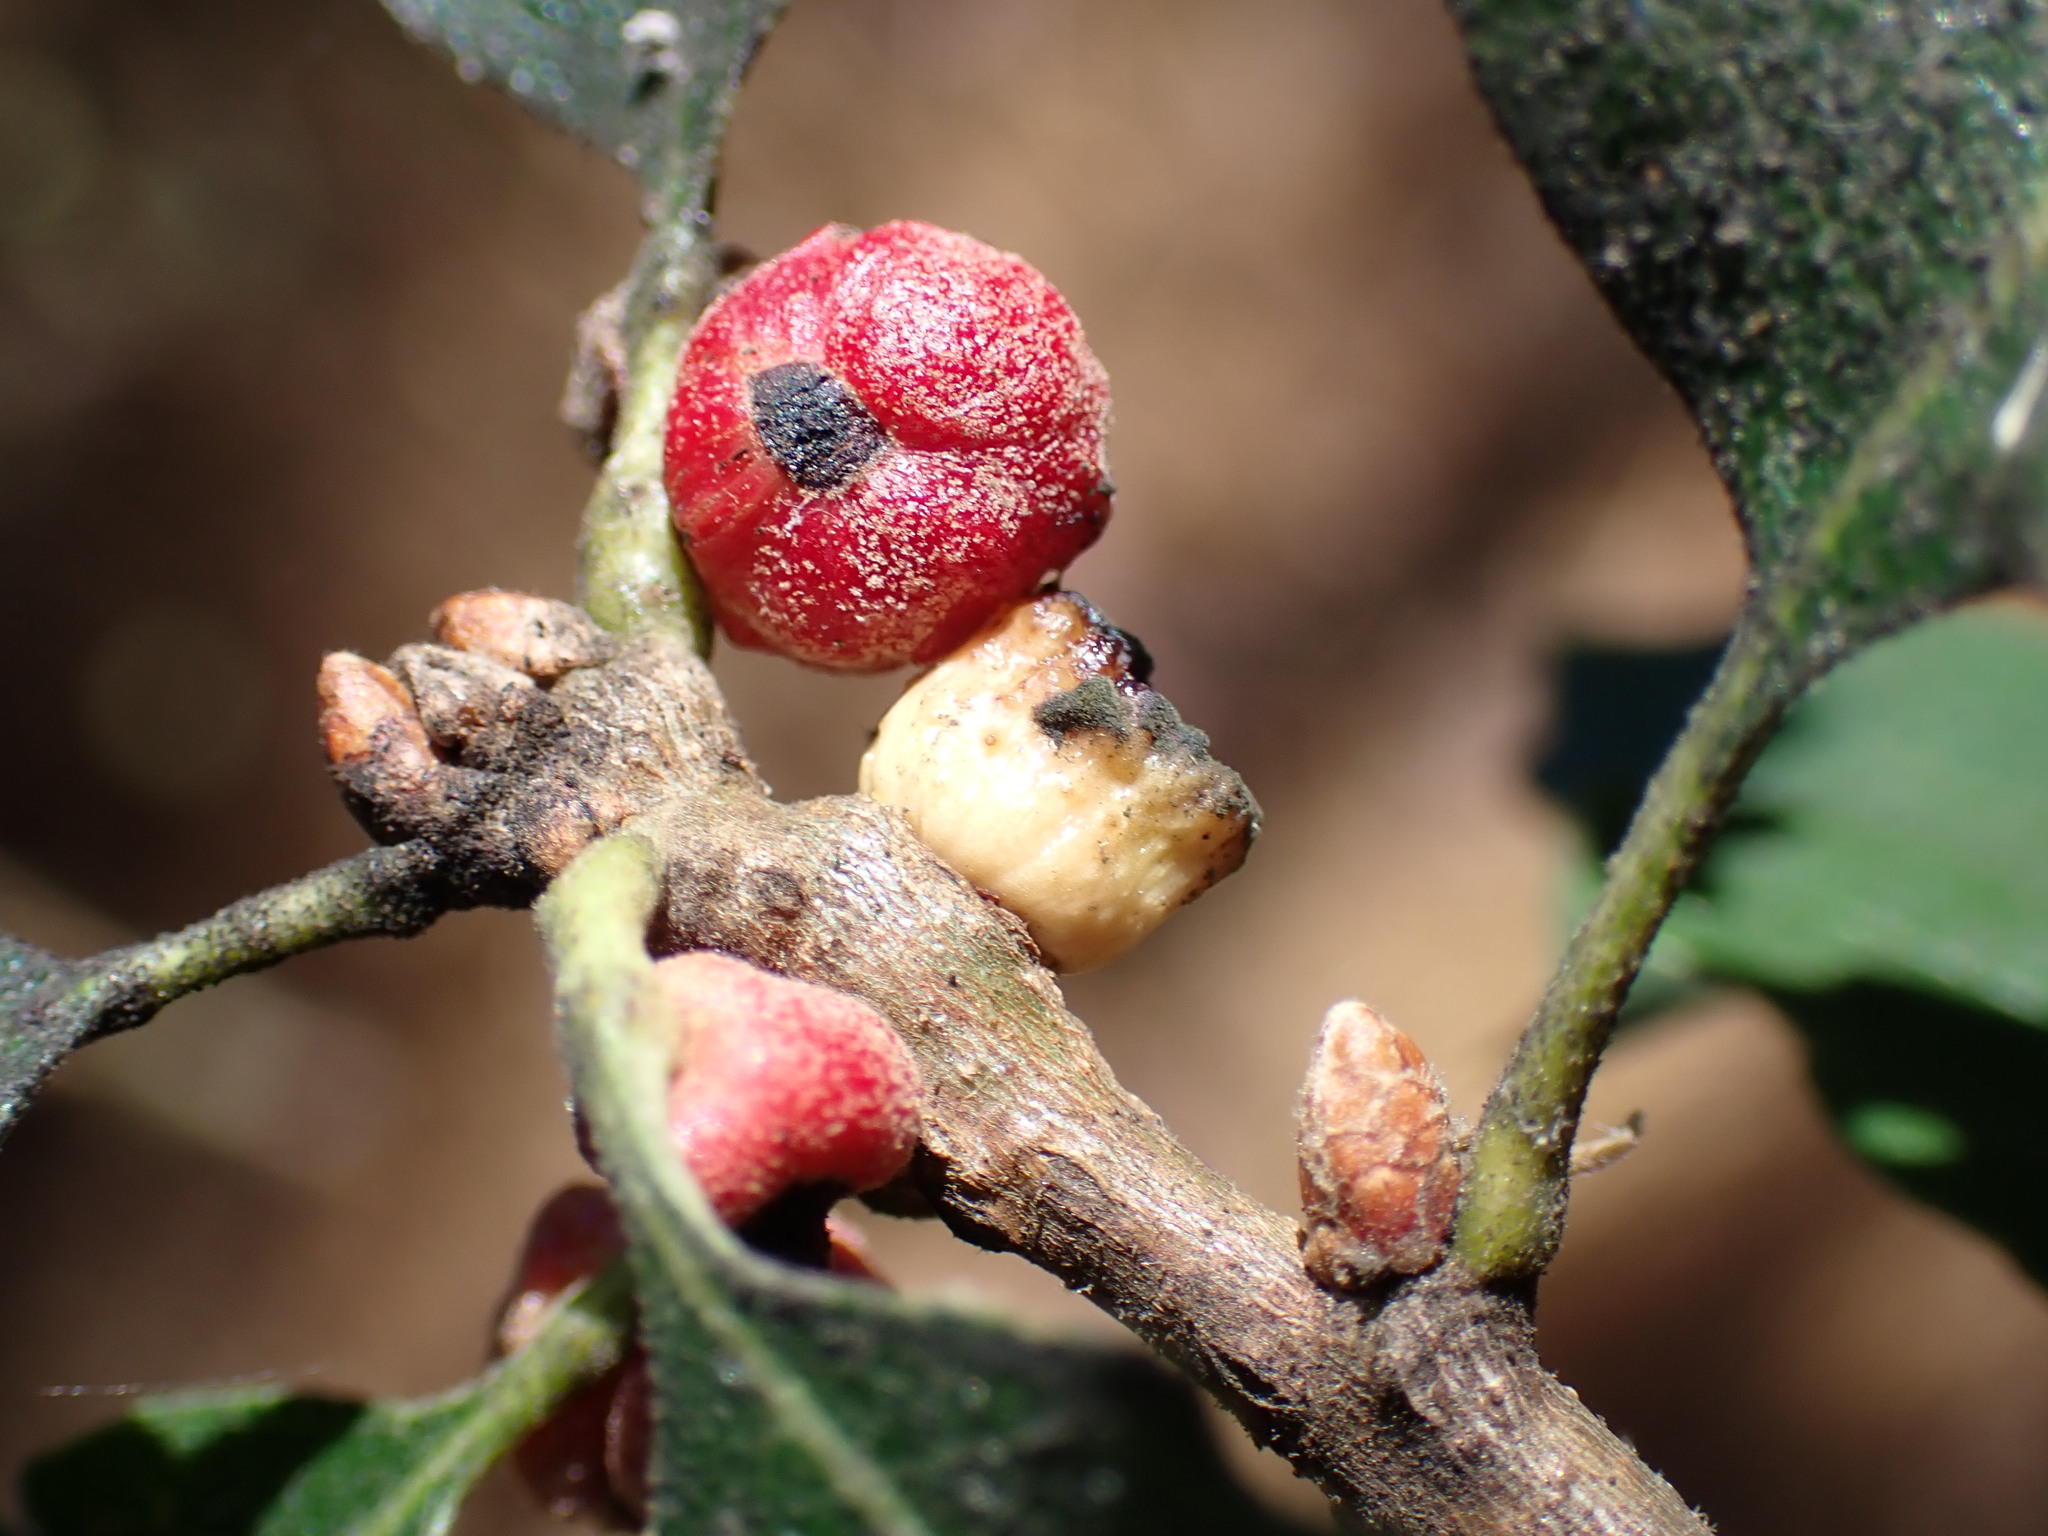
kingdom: Animalia
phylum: Arthropoda
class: Insecta
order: Hymenoptera
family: Cynipidae
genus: Disholcaspis
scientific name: Disholcaspis
